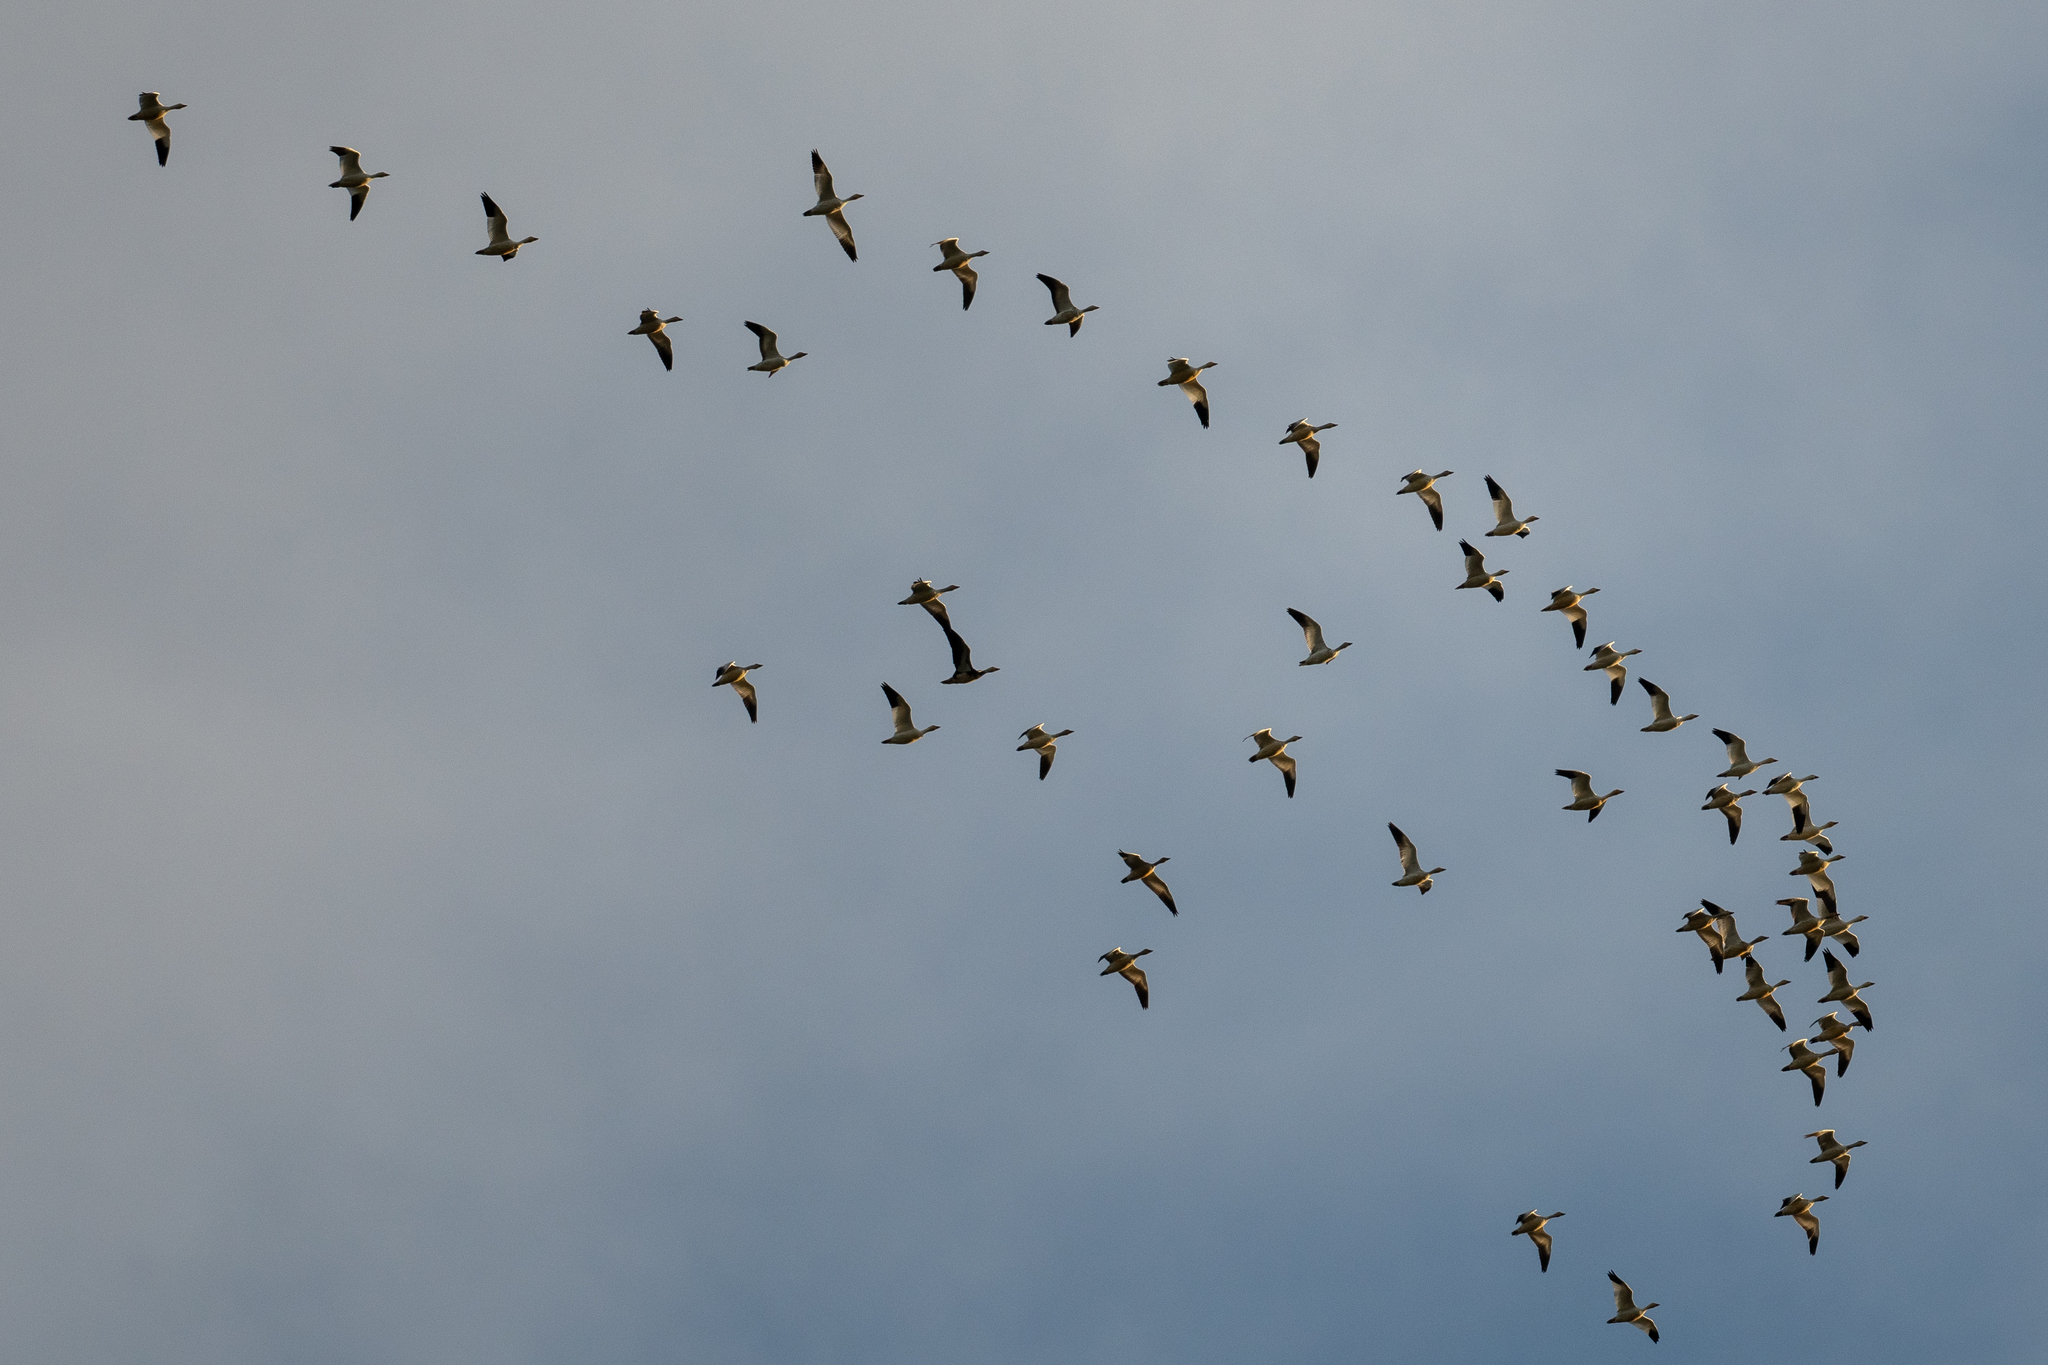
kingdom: Animalia
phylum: Chordata
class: Aves
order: Anseriformes
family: Anatidae
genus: Anser
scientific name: Anser caerulescens
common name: Snow goose
